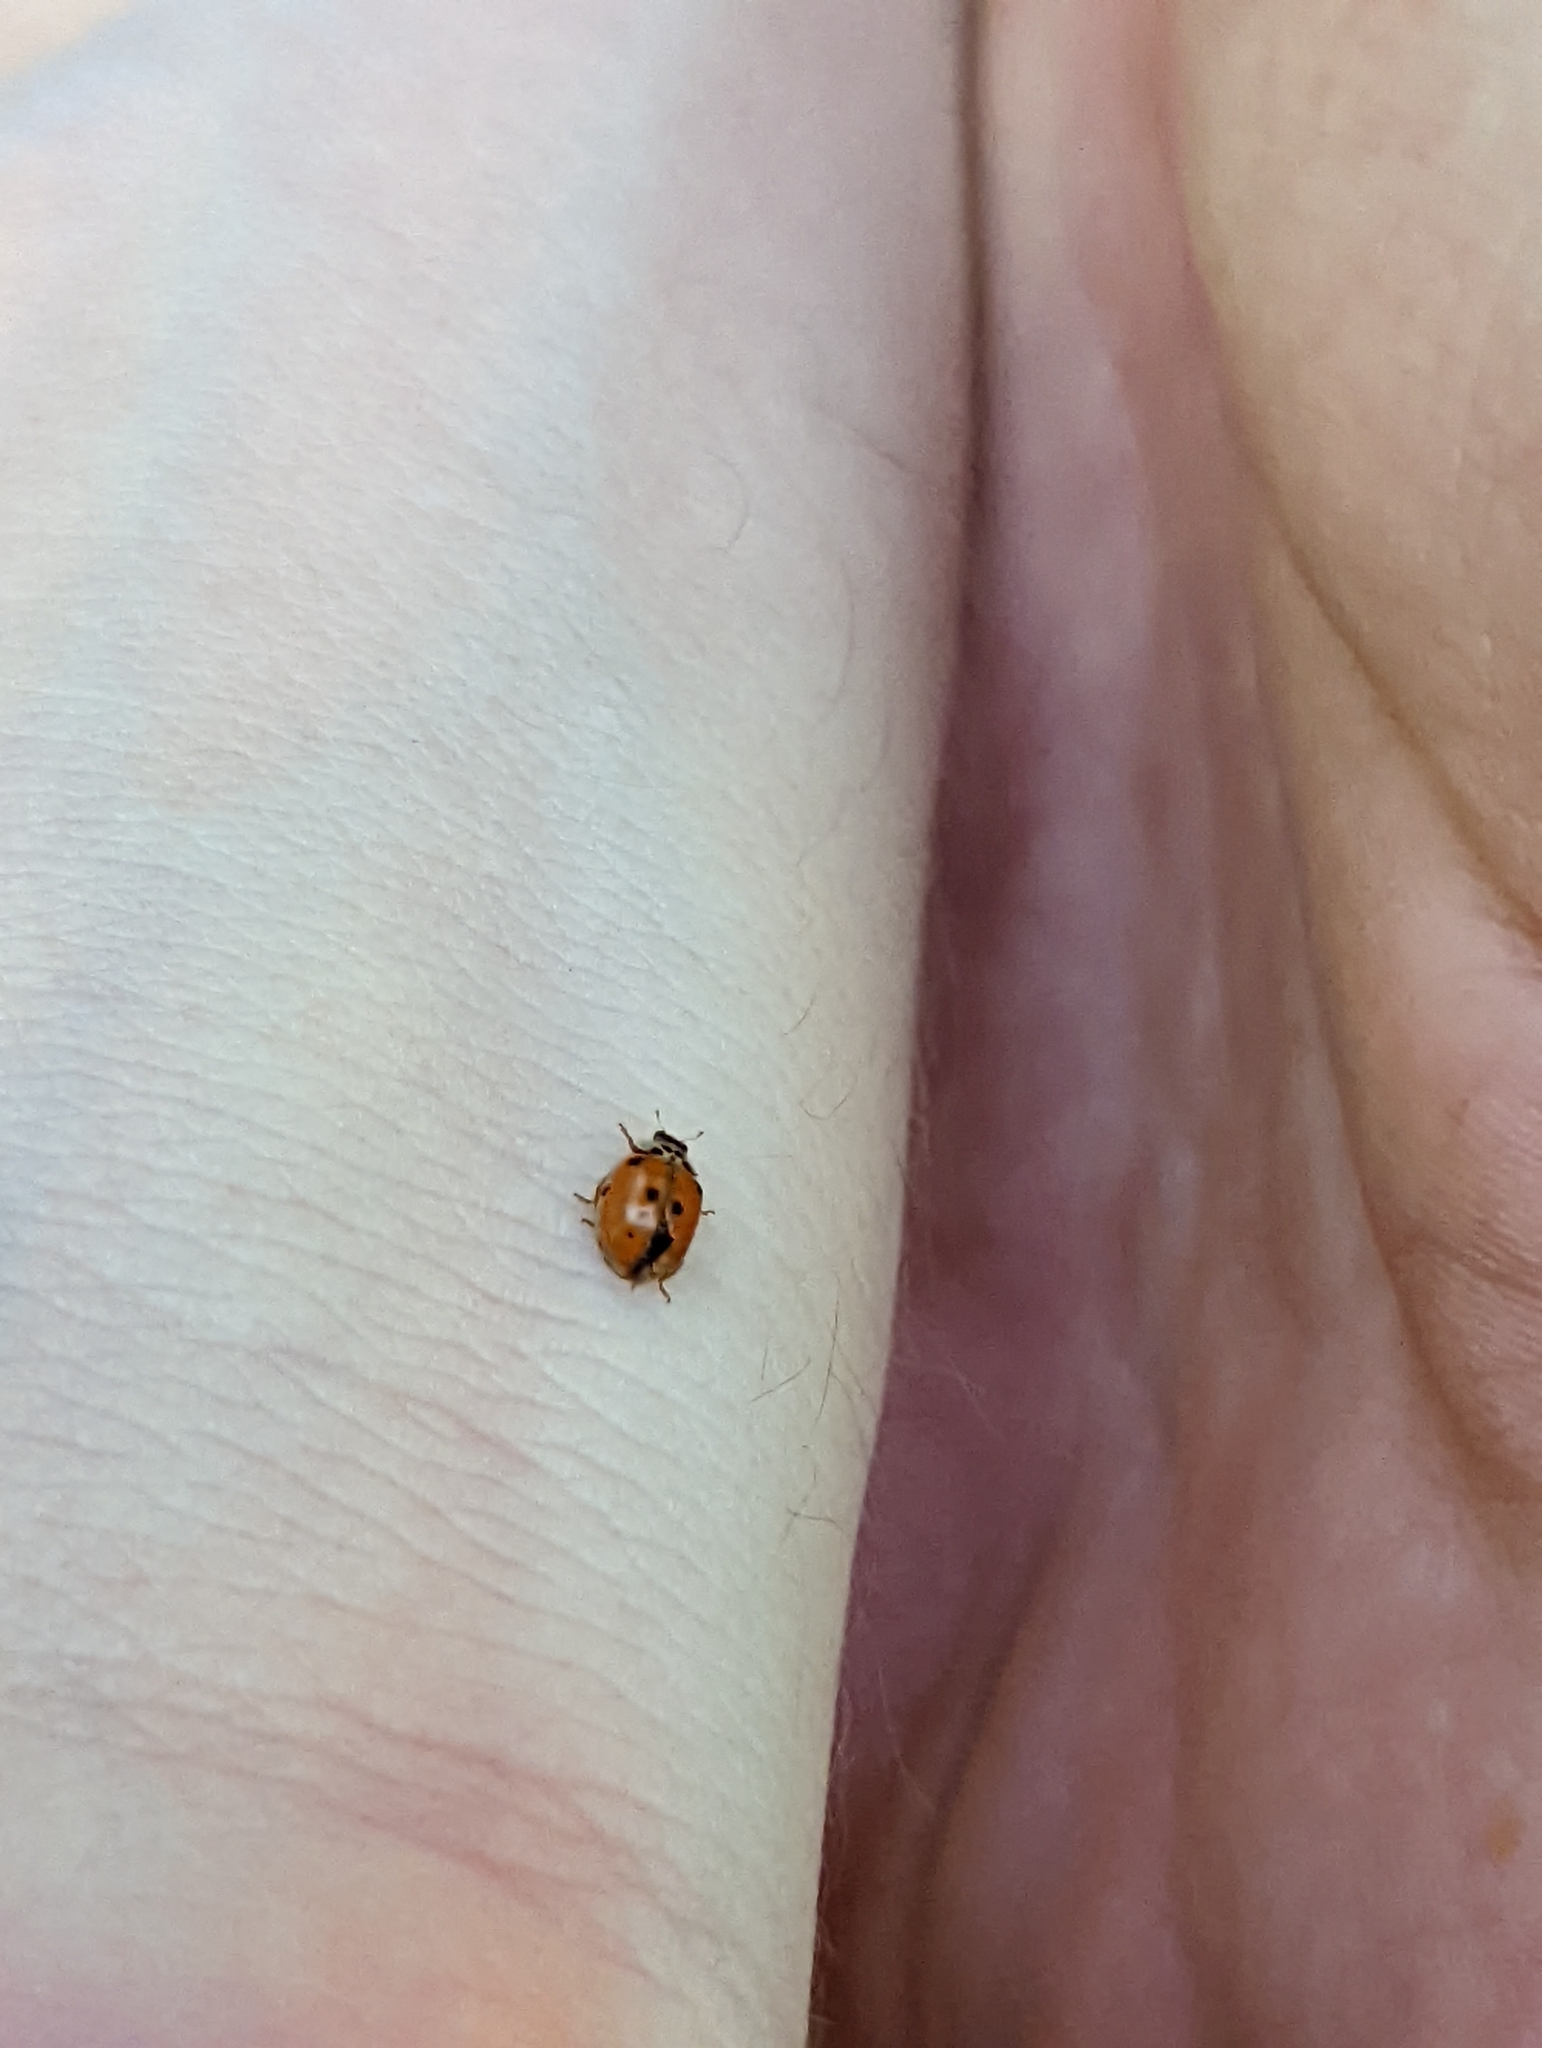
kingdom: Animalia
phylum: Arthropoda
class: Insecta
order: Coleoptera
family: Coccinellidae
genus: Adalia
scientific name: Adalia decempunctata
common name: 10-spot ladybird
